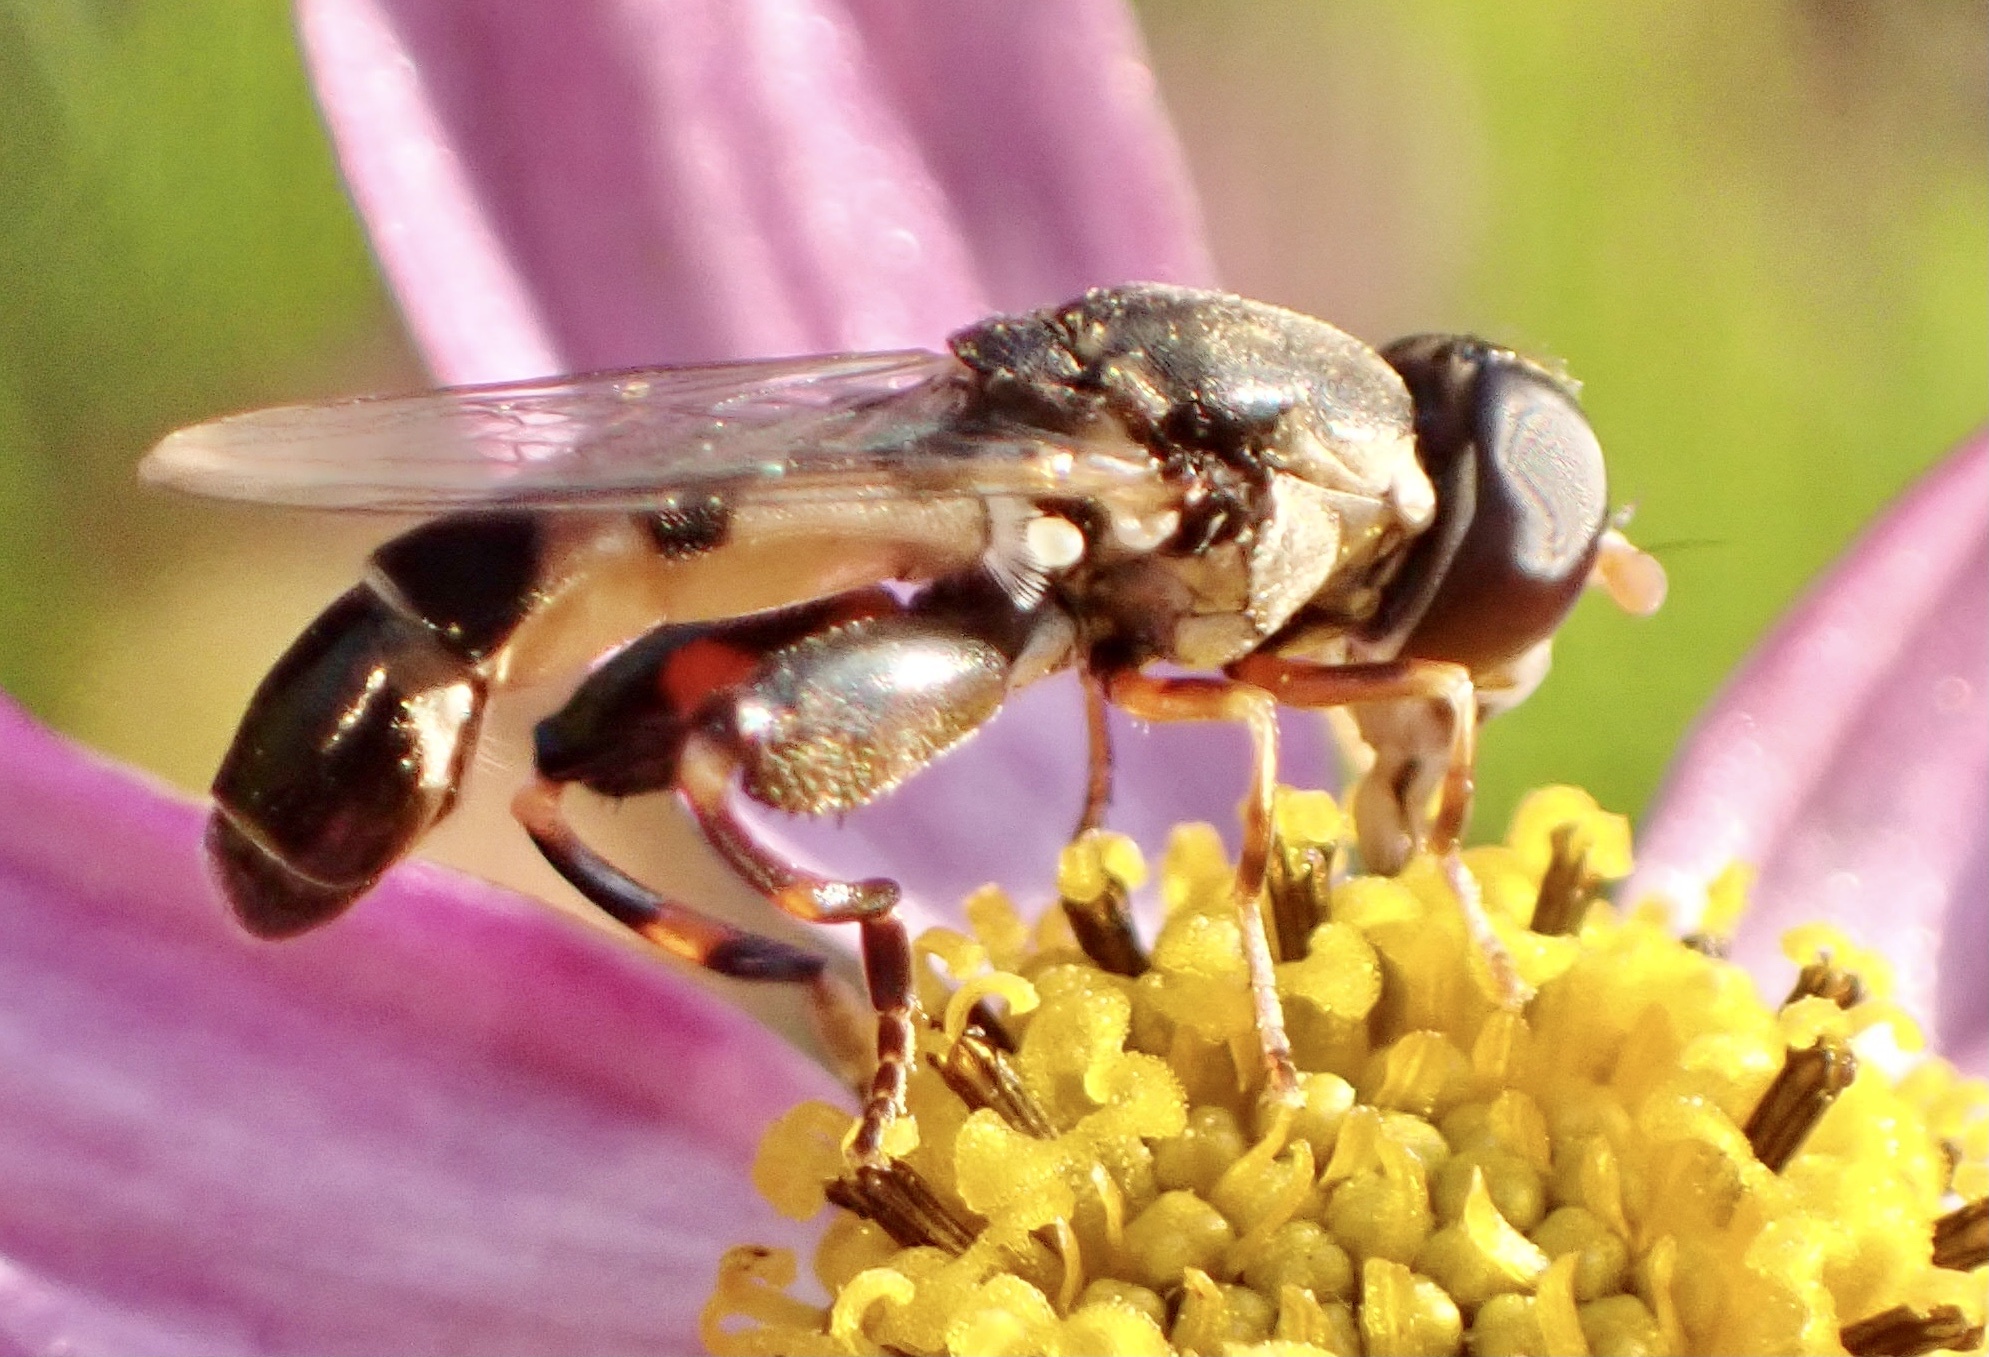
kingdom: Animalia
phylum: Arthropoda
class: Insecta
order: Diptera
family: Syrphidae
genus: Syritta
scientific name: Syritta pipiens
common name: Hover fly
